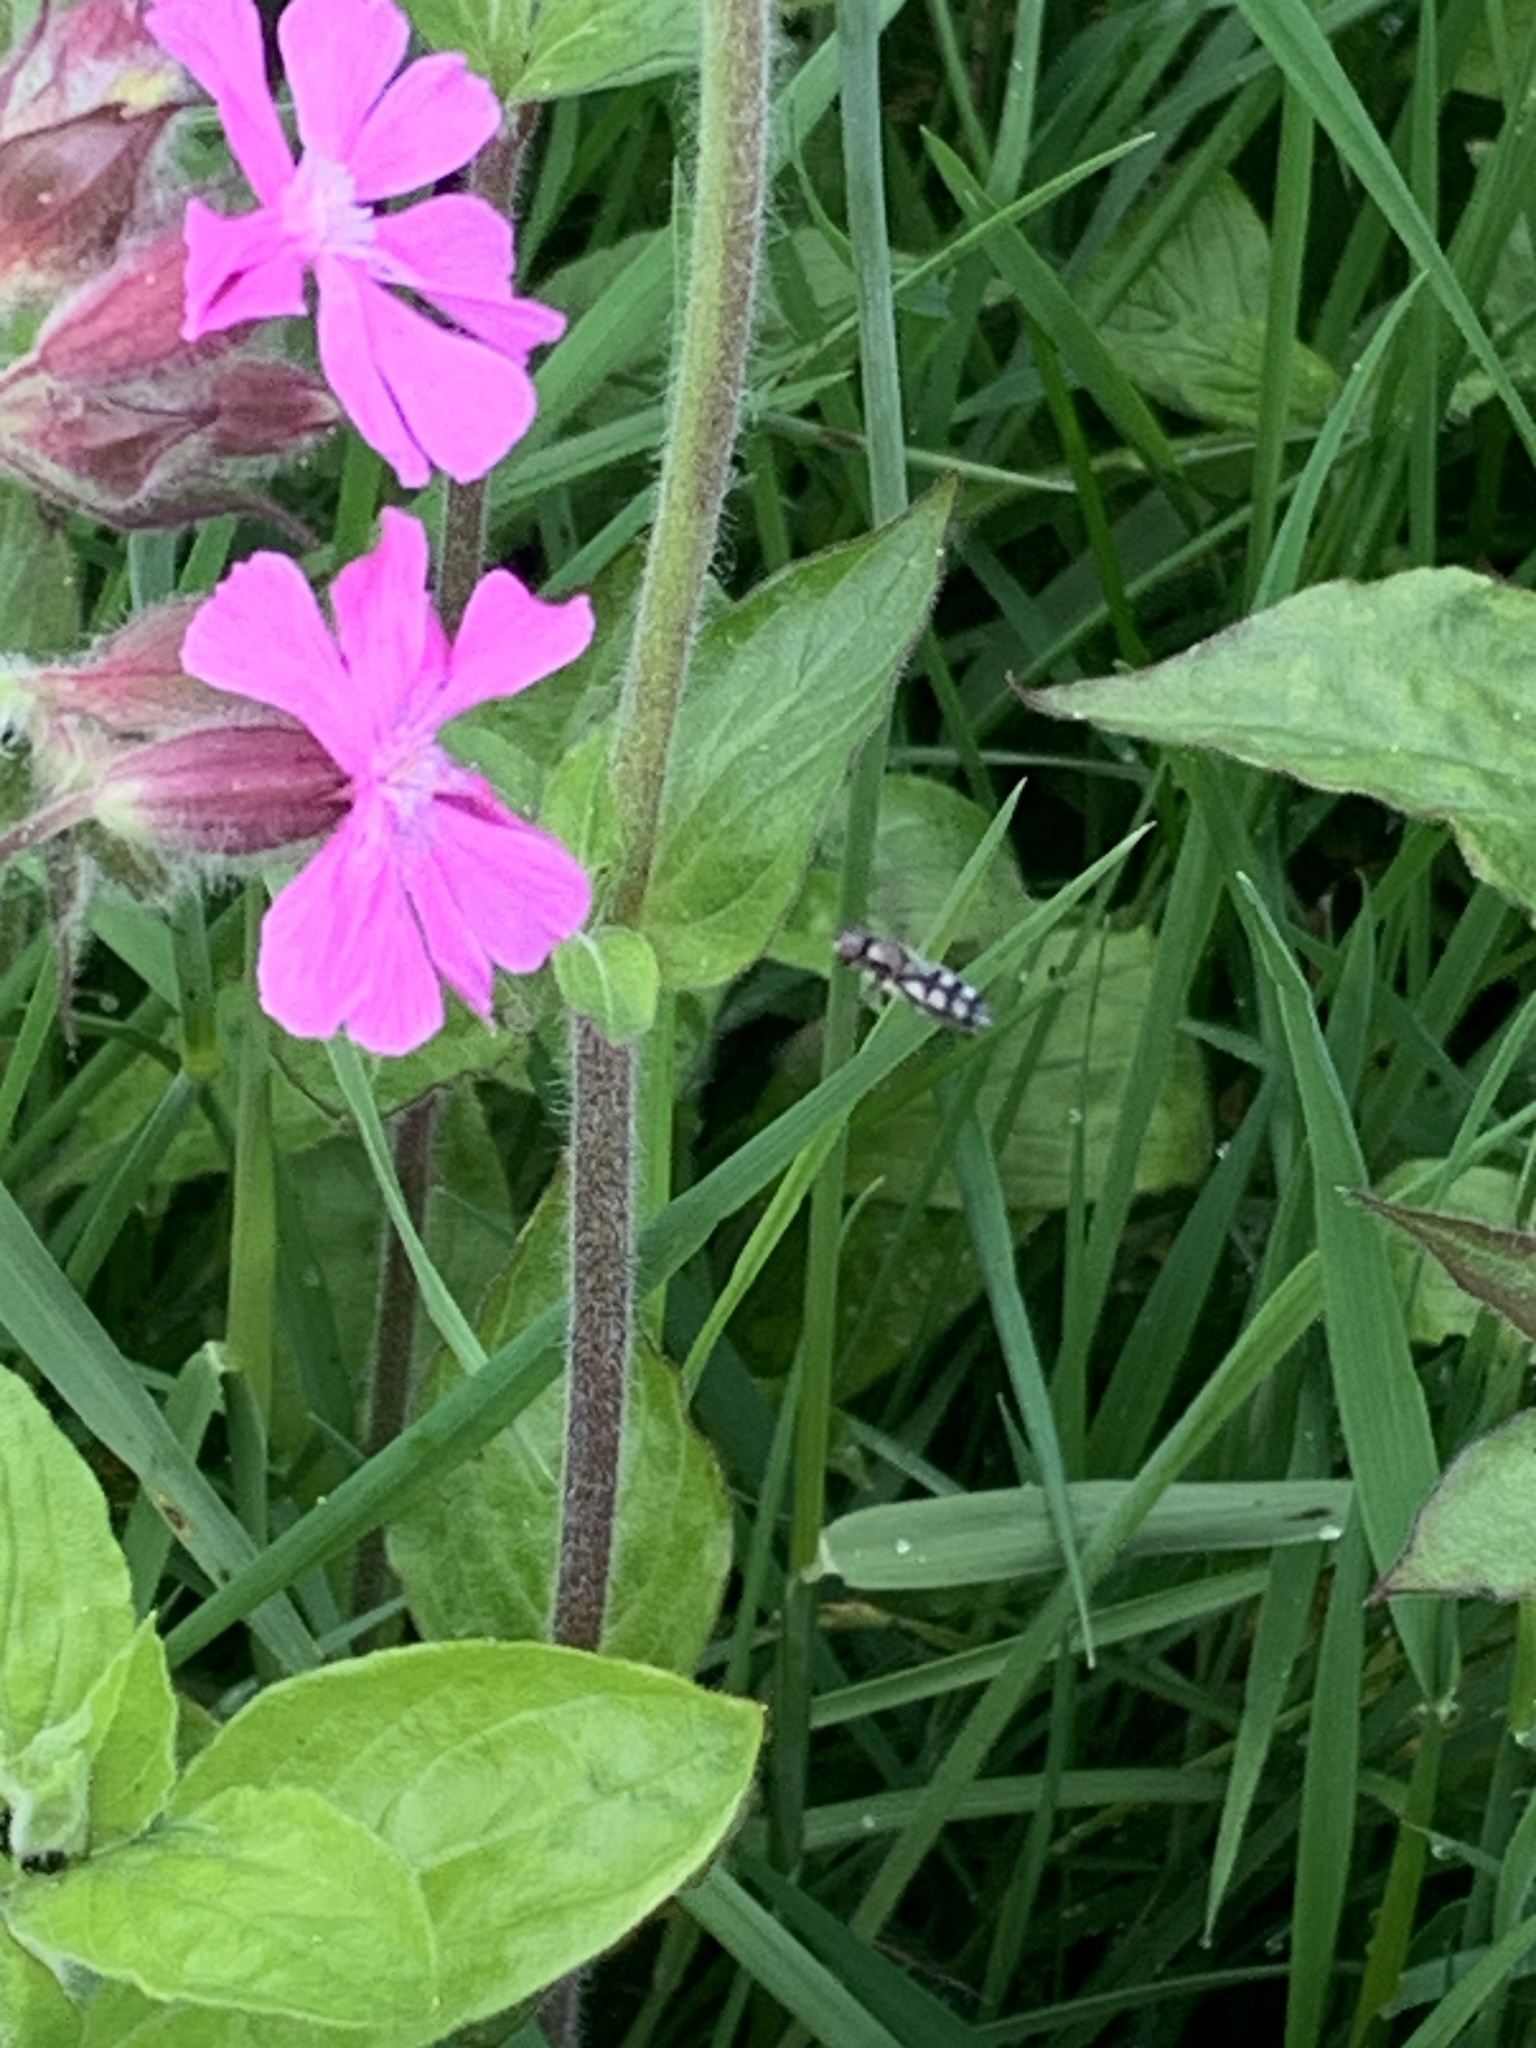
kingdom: Plantae
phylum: Tracheophyta
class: Magnoliopsida
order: Caryophyllales
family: Caryophyllaceae
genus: Silene
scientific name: Silene dioica
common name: Red campion
